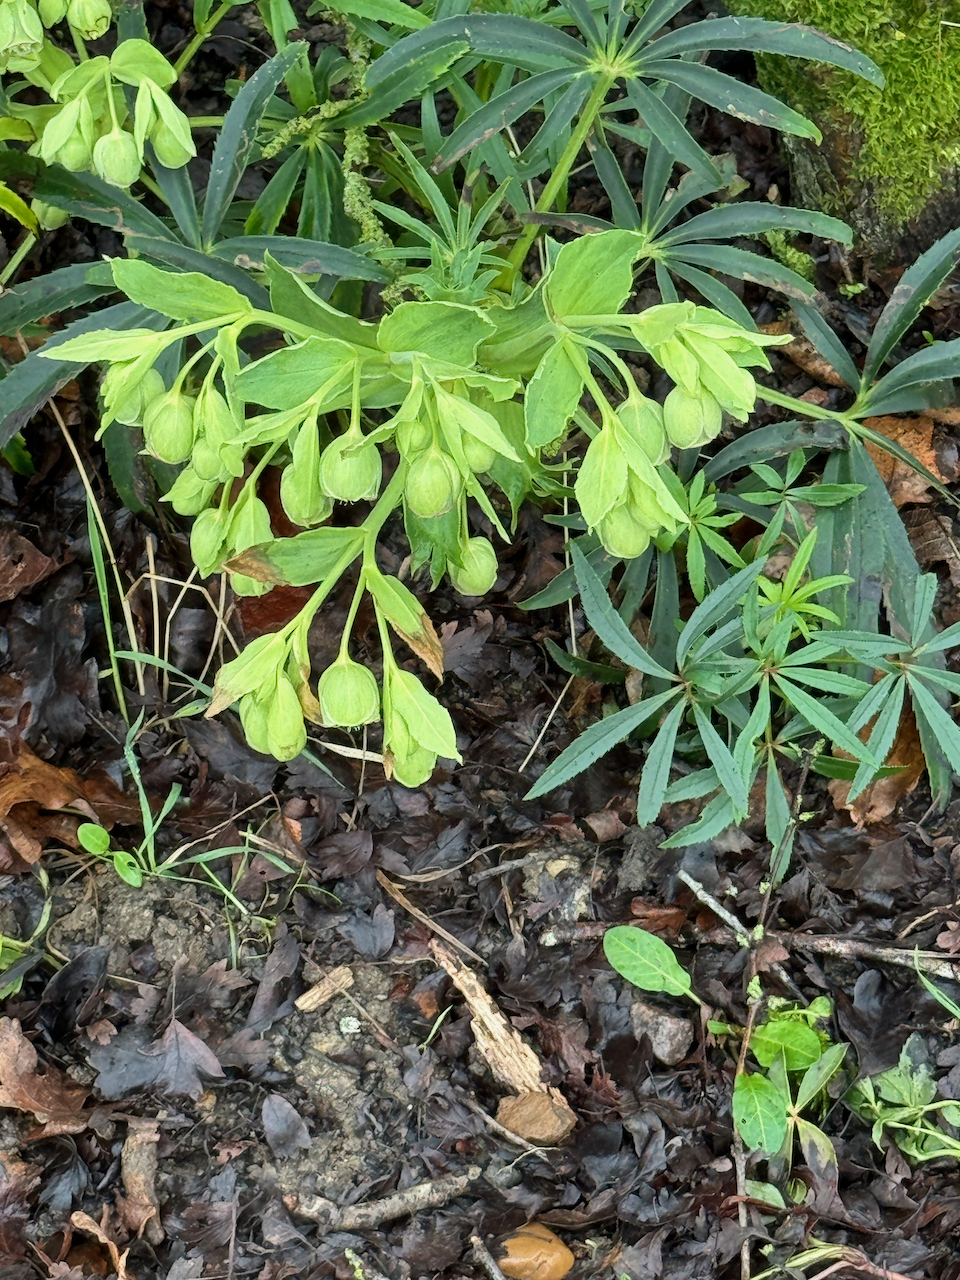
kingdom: Plantae
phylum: Tracheophyta
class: Magnoliopsida
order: Ranunculales
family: Ranunculaceae
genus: Helleborus
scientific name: Helleborus foetidus
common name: Stinking hellebore
